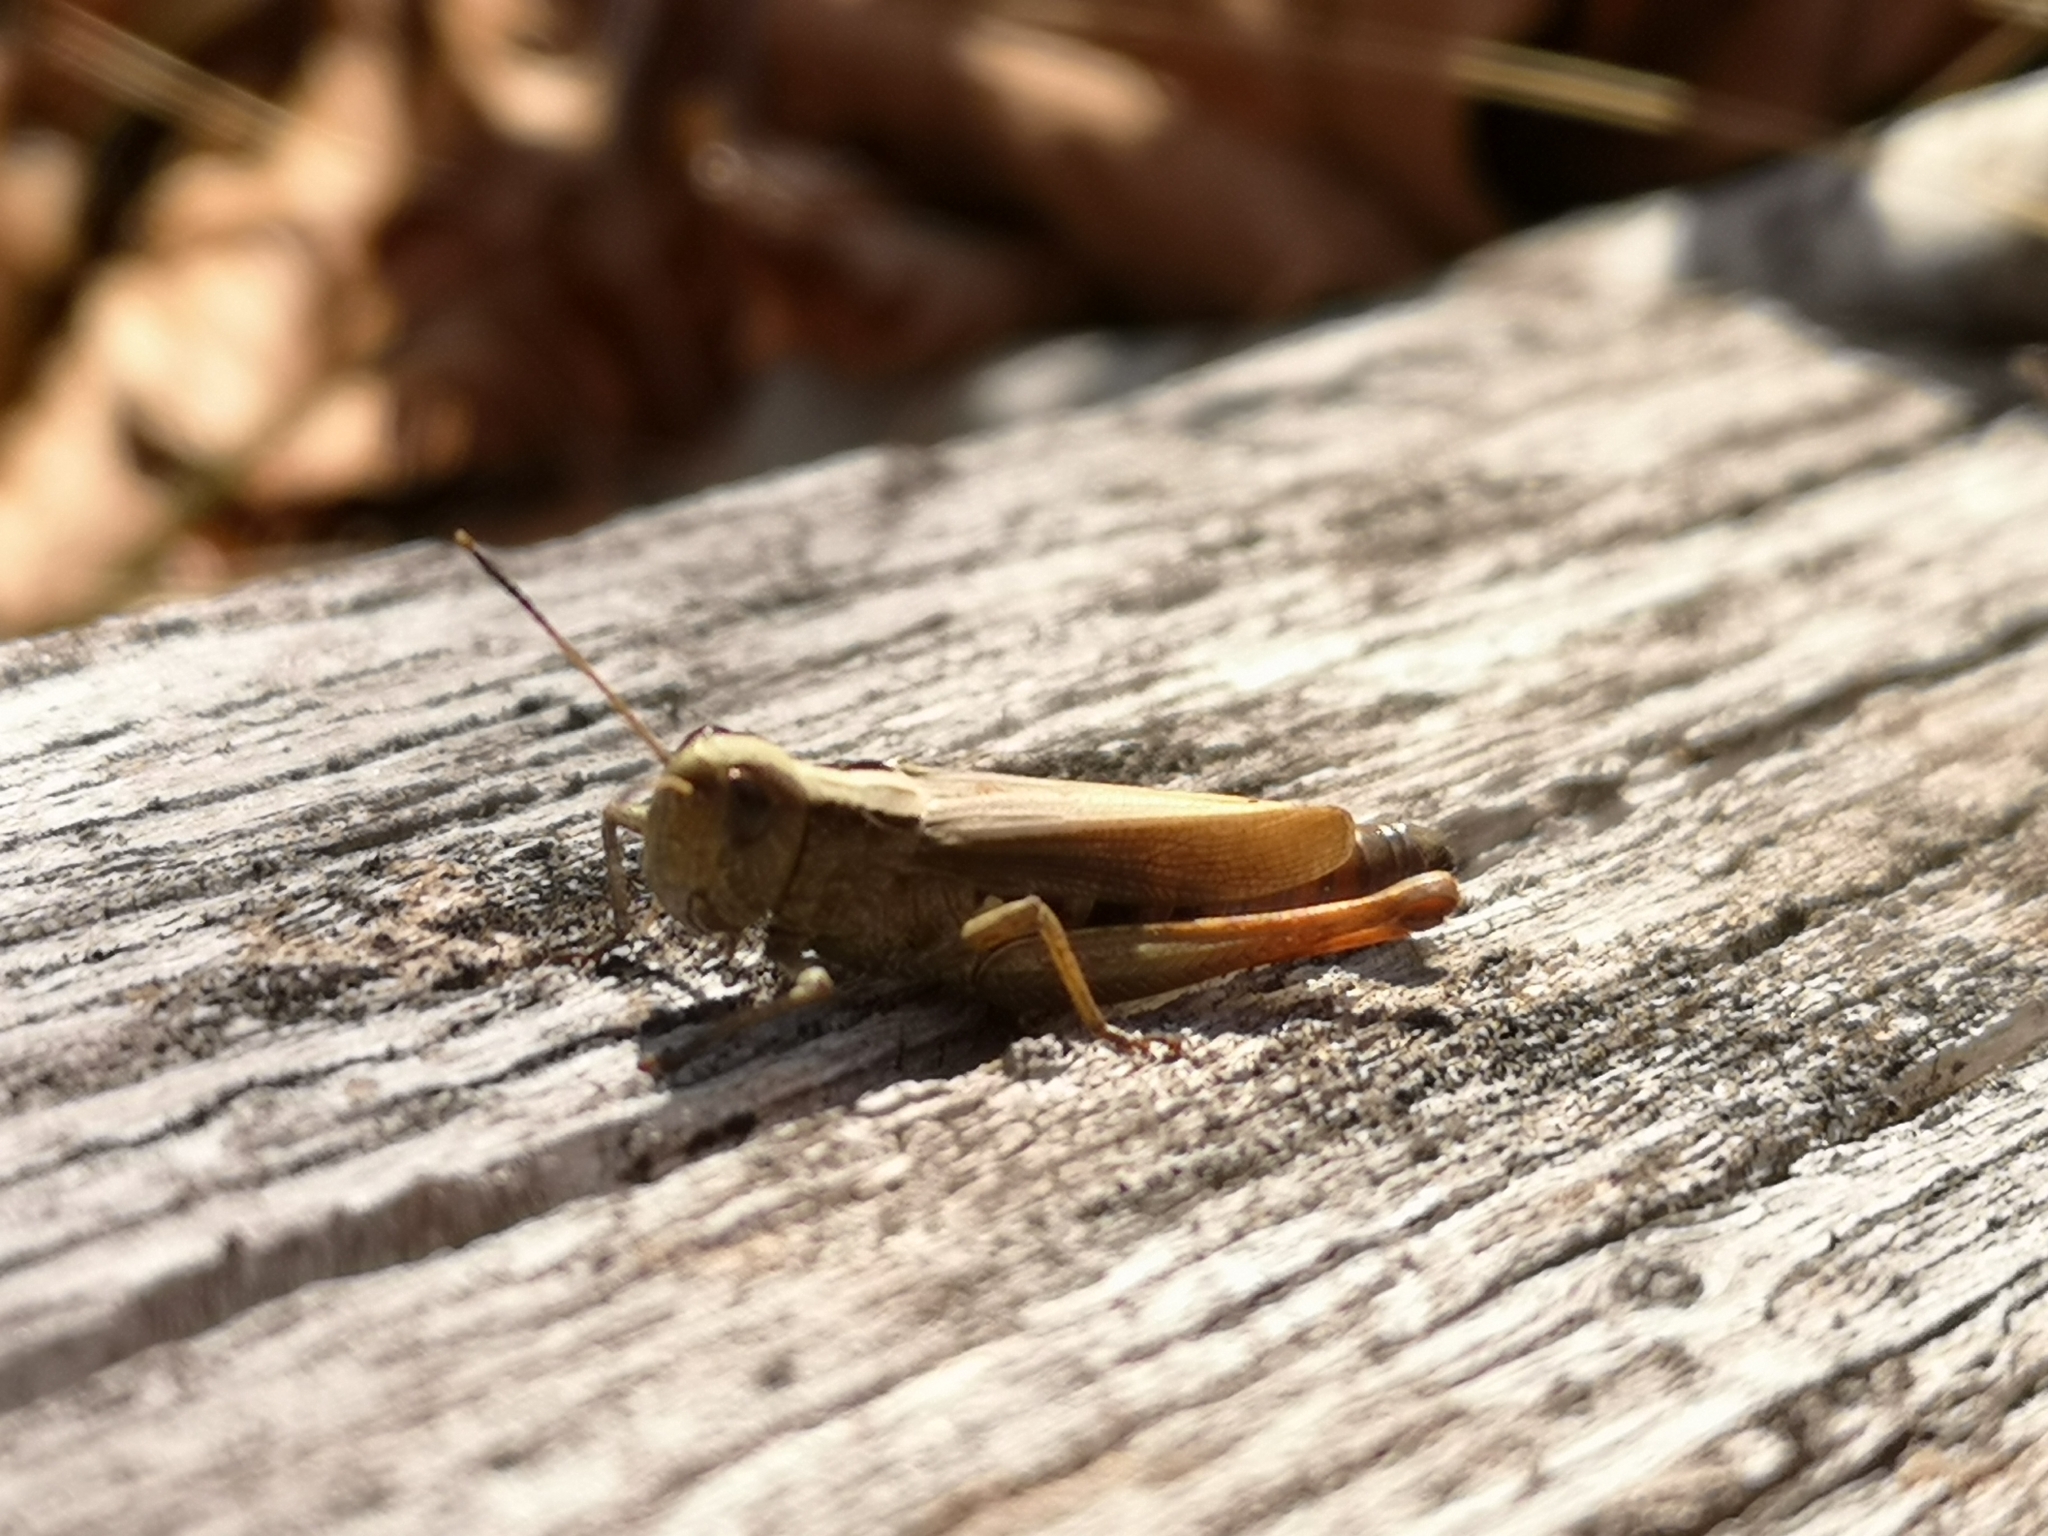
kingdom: Animalia
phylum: Arthropoda
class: Insecta
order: Orthoptera
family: Acrididae
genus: Gomphocerippus
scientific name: Gomphocerippus rufus
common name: Rufous grasshopper
